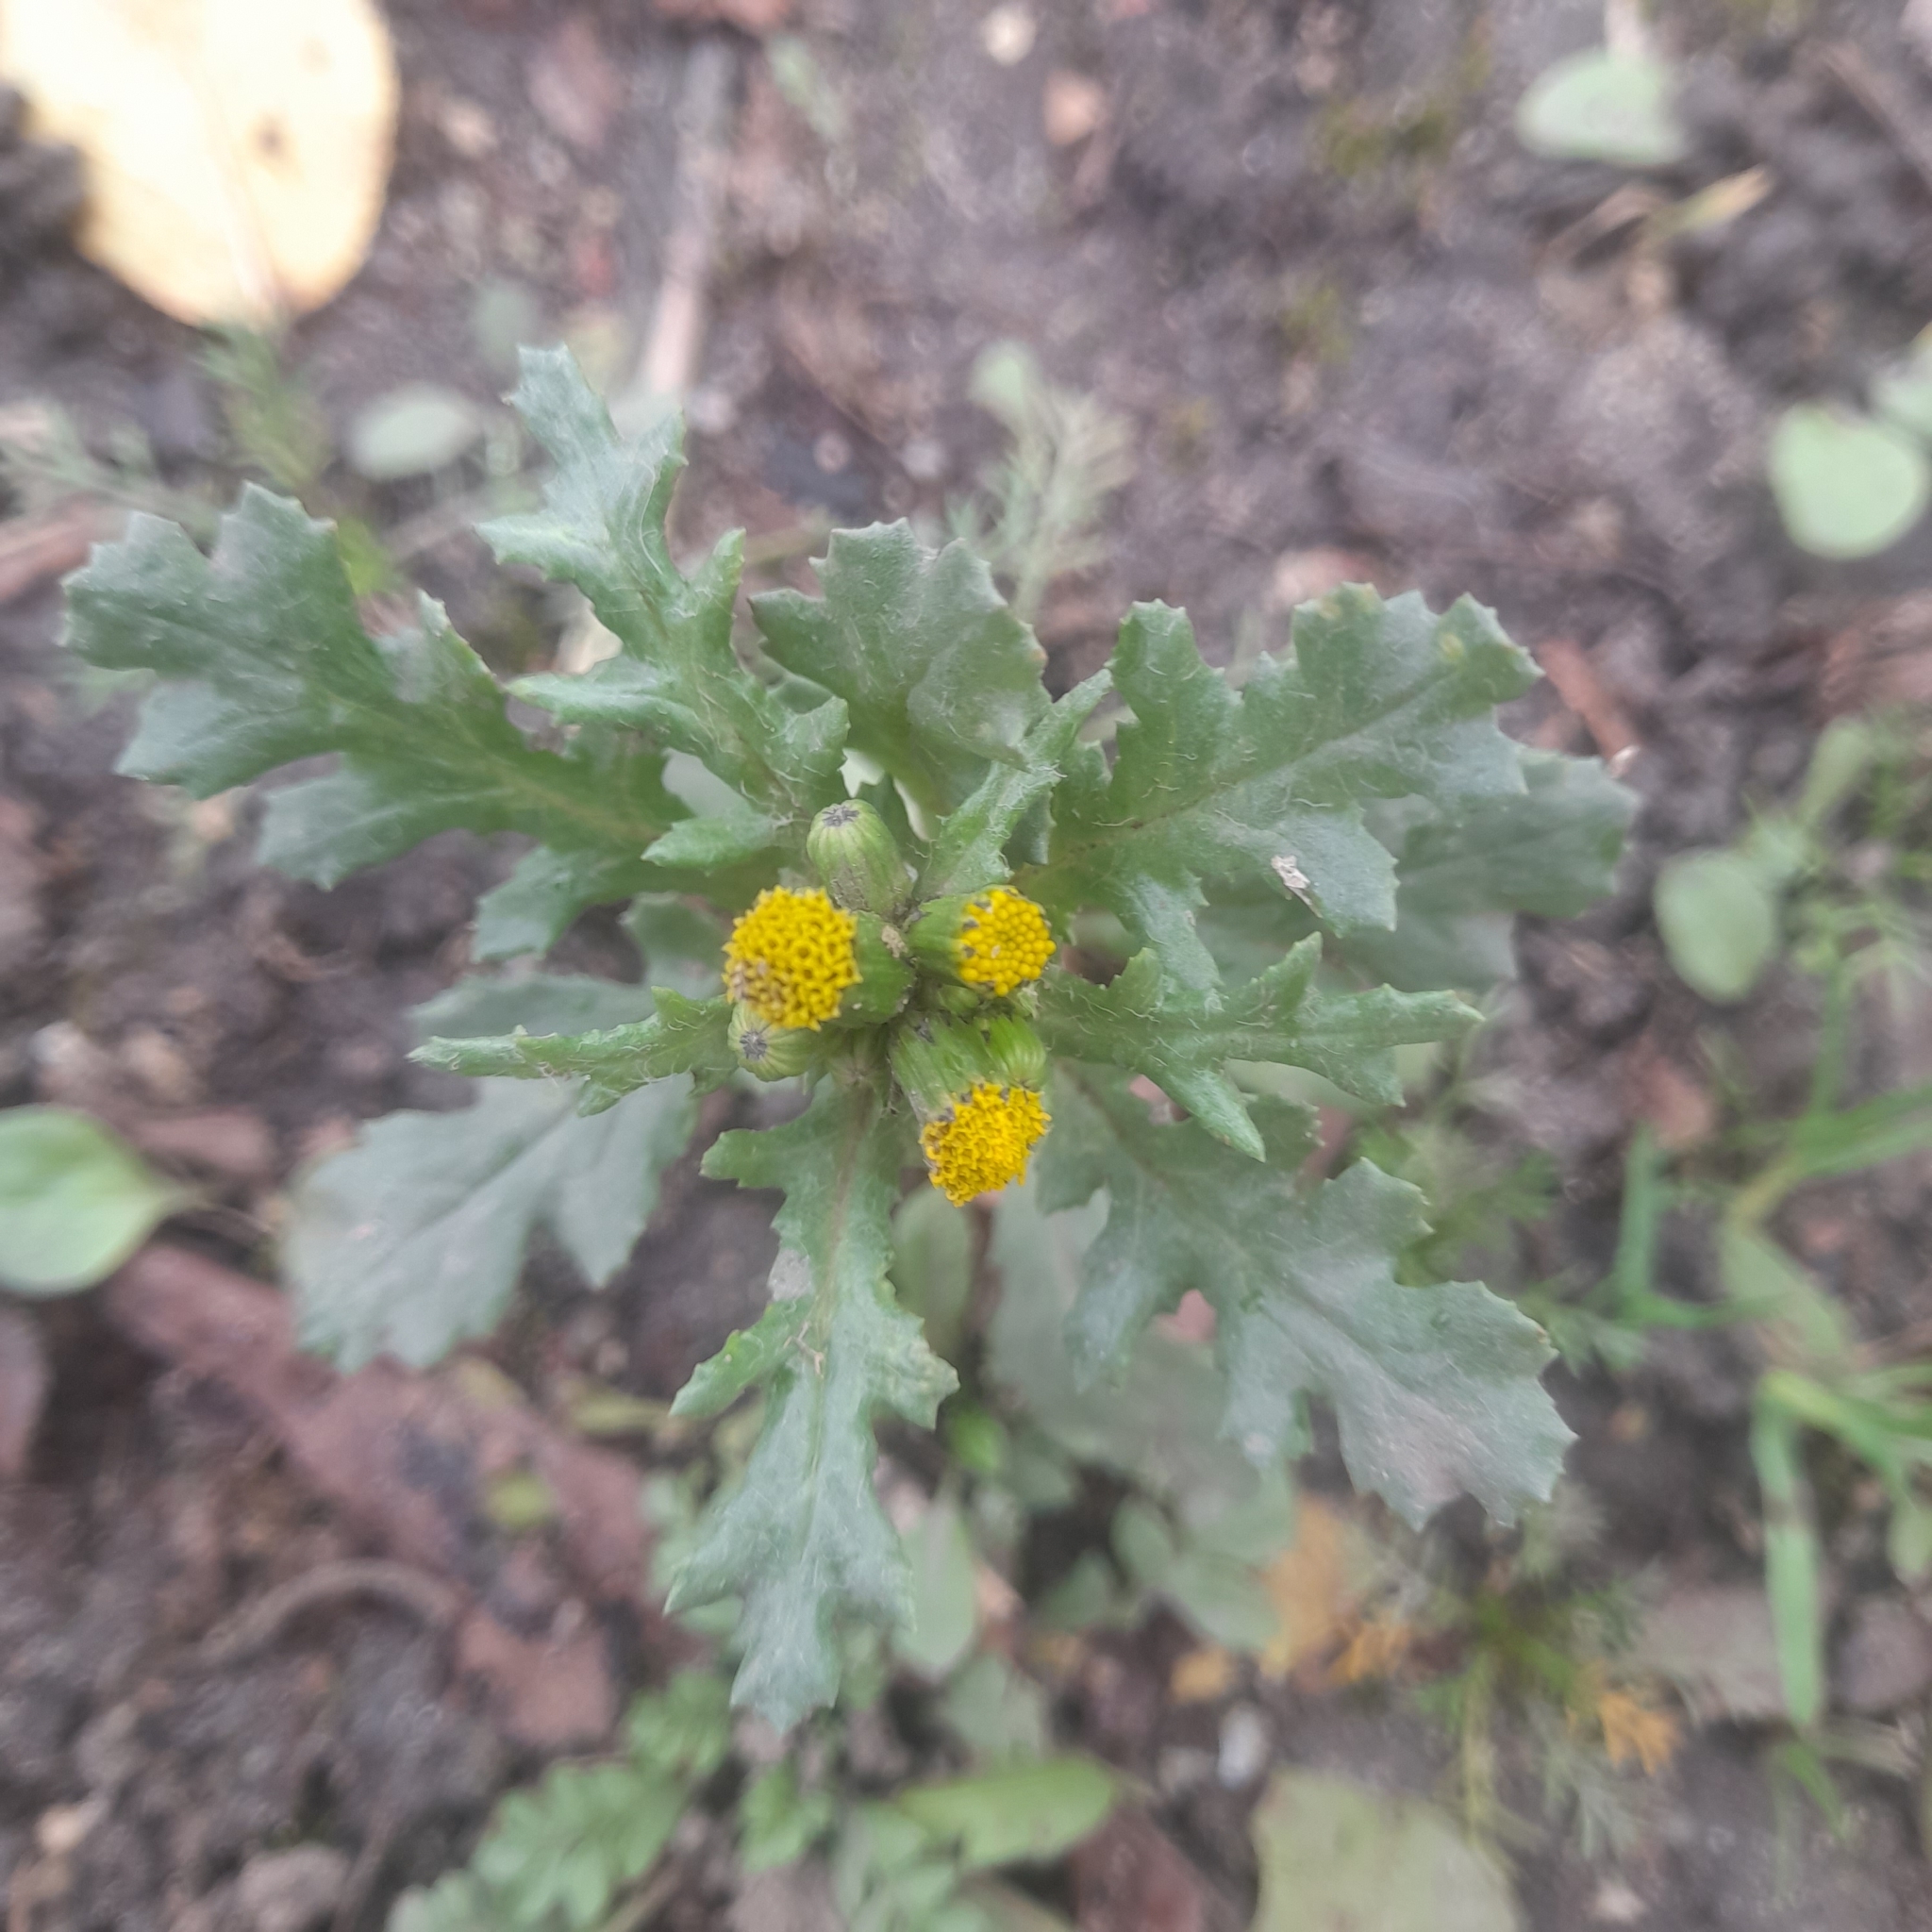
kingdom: Plantae
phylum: Tracheophyta
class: Magnoliopsida
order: Asterales
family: Asteraceae
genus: Senecio
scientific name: Senecio vulgaris
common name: Old-man-in-the-spring
